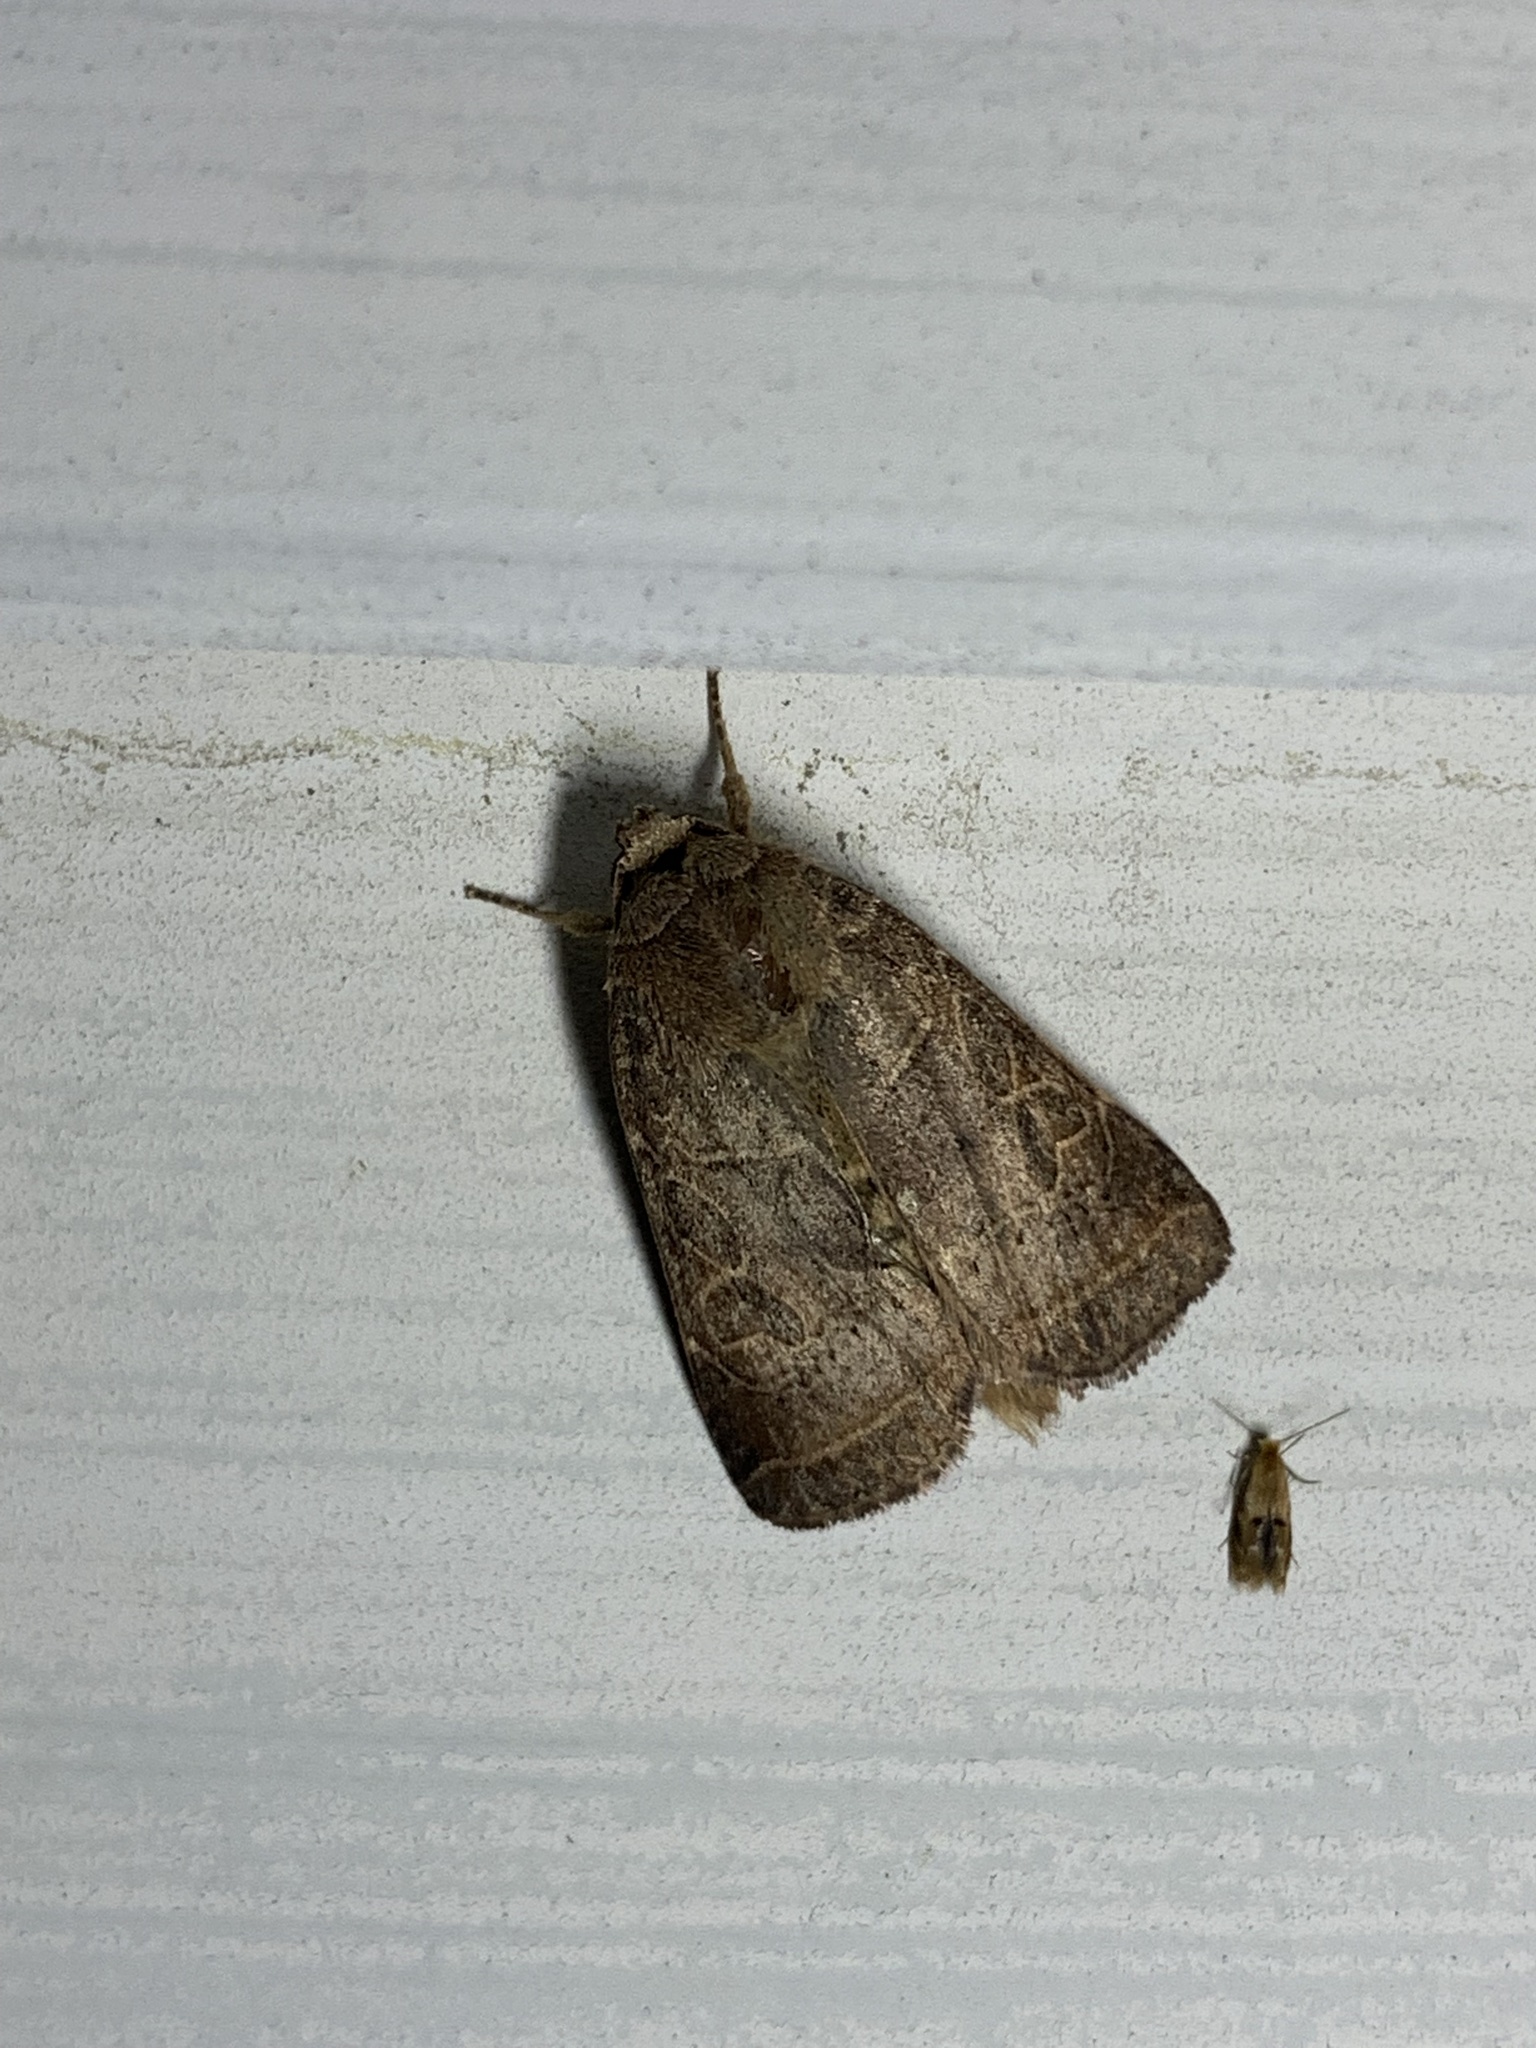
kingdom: Animalia
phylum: Arthropoda
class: Insecta
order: Lepidoptera
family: Noctuidae
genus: Orthodes
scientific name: Orthodes majuscula
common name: Rustic quaker
